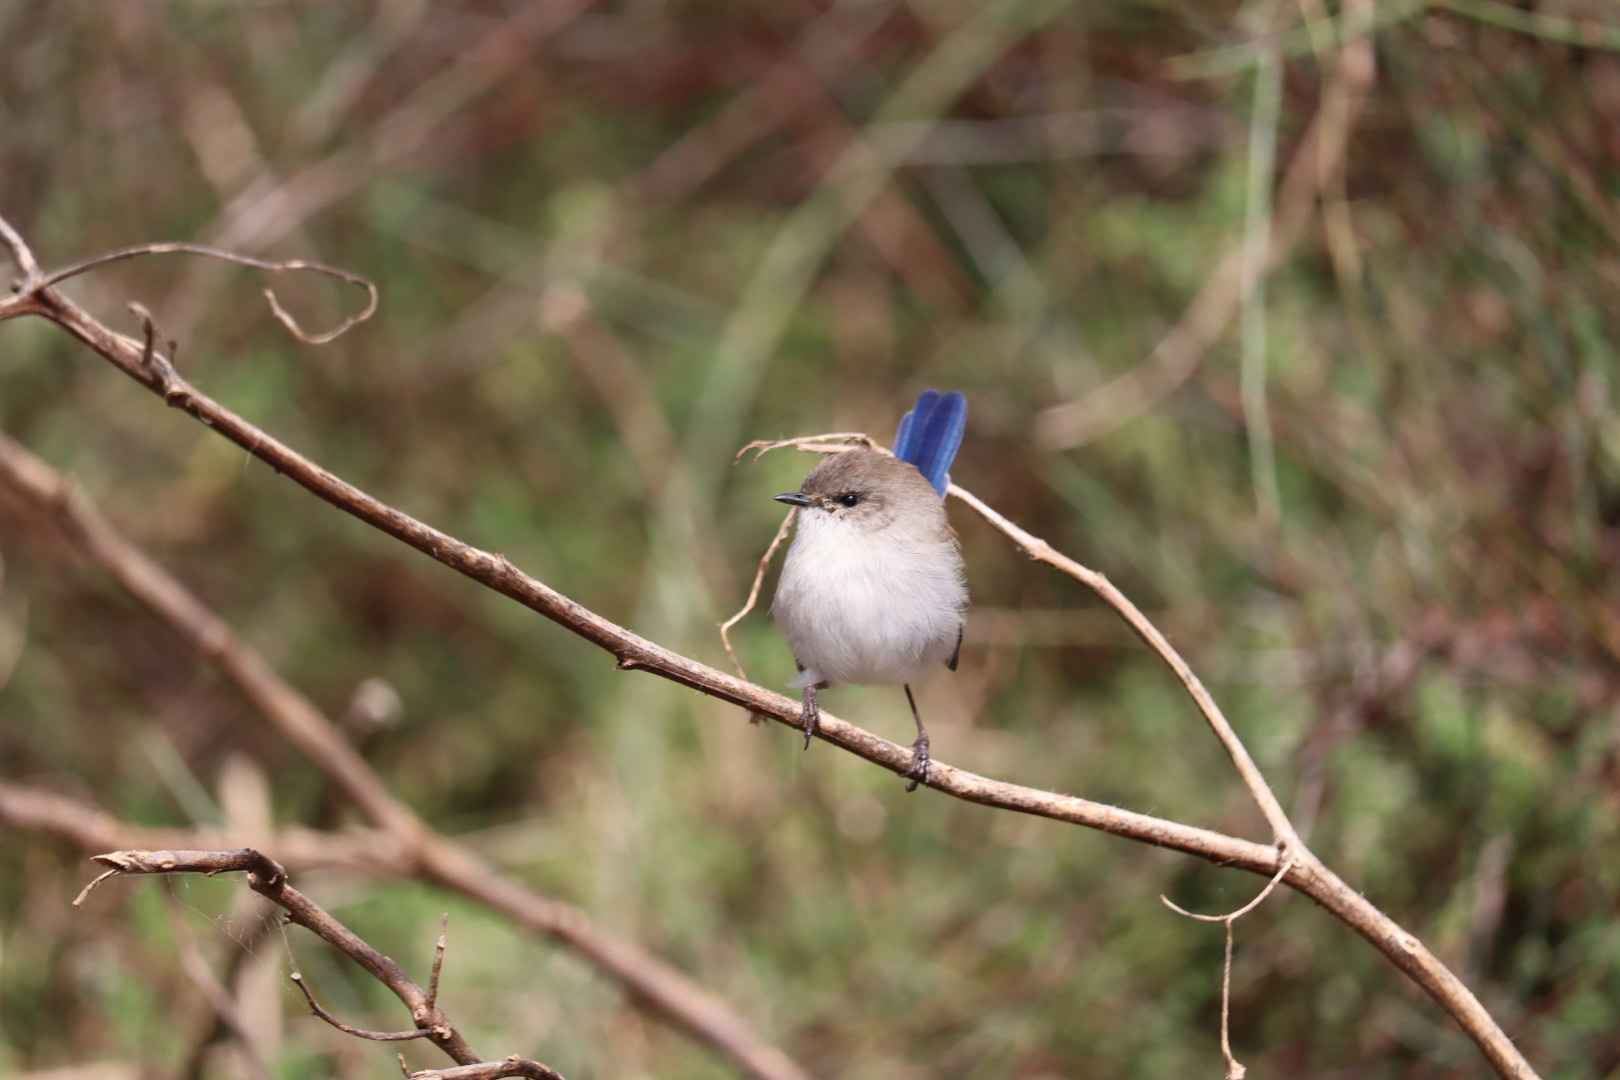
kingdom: Animalia
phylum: Chordata
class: Aves
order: Passeriformes
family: Maluridae
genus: Malurus
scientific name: Malurus cyaneus
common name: Superb fairywren
